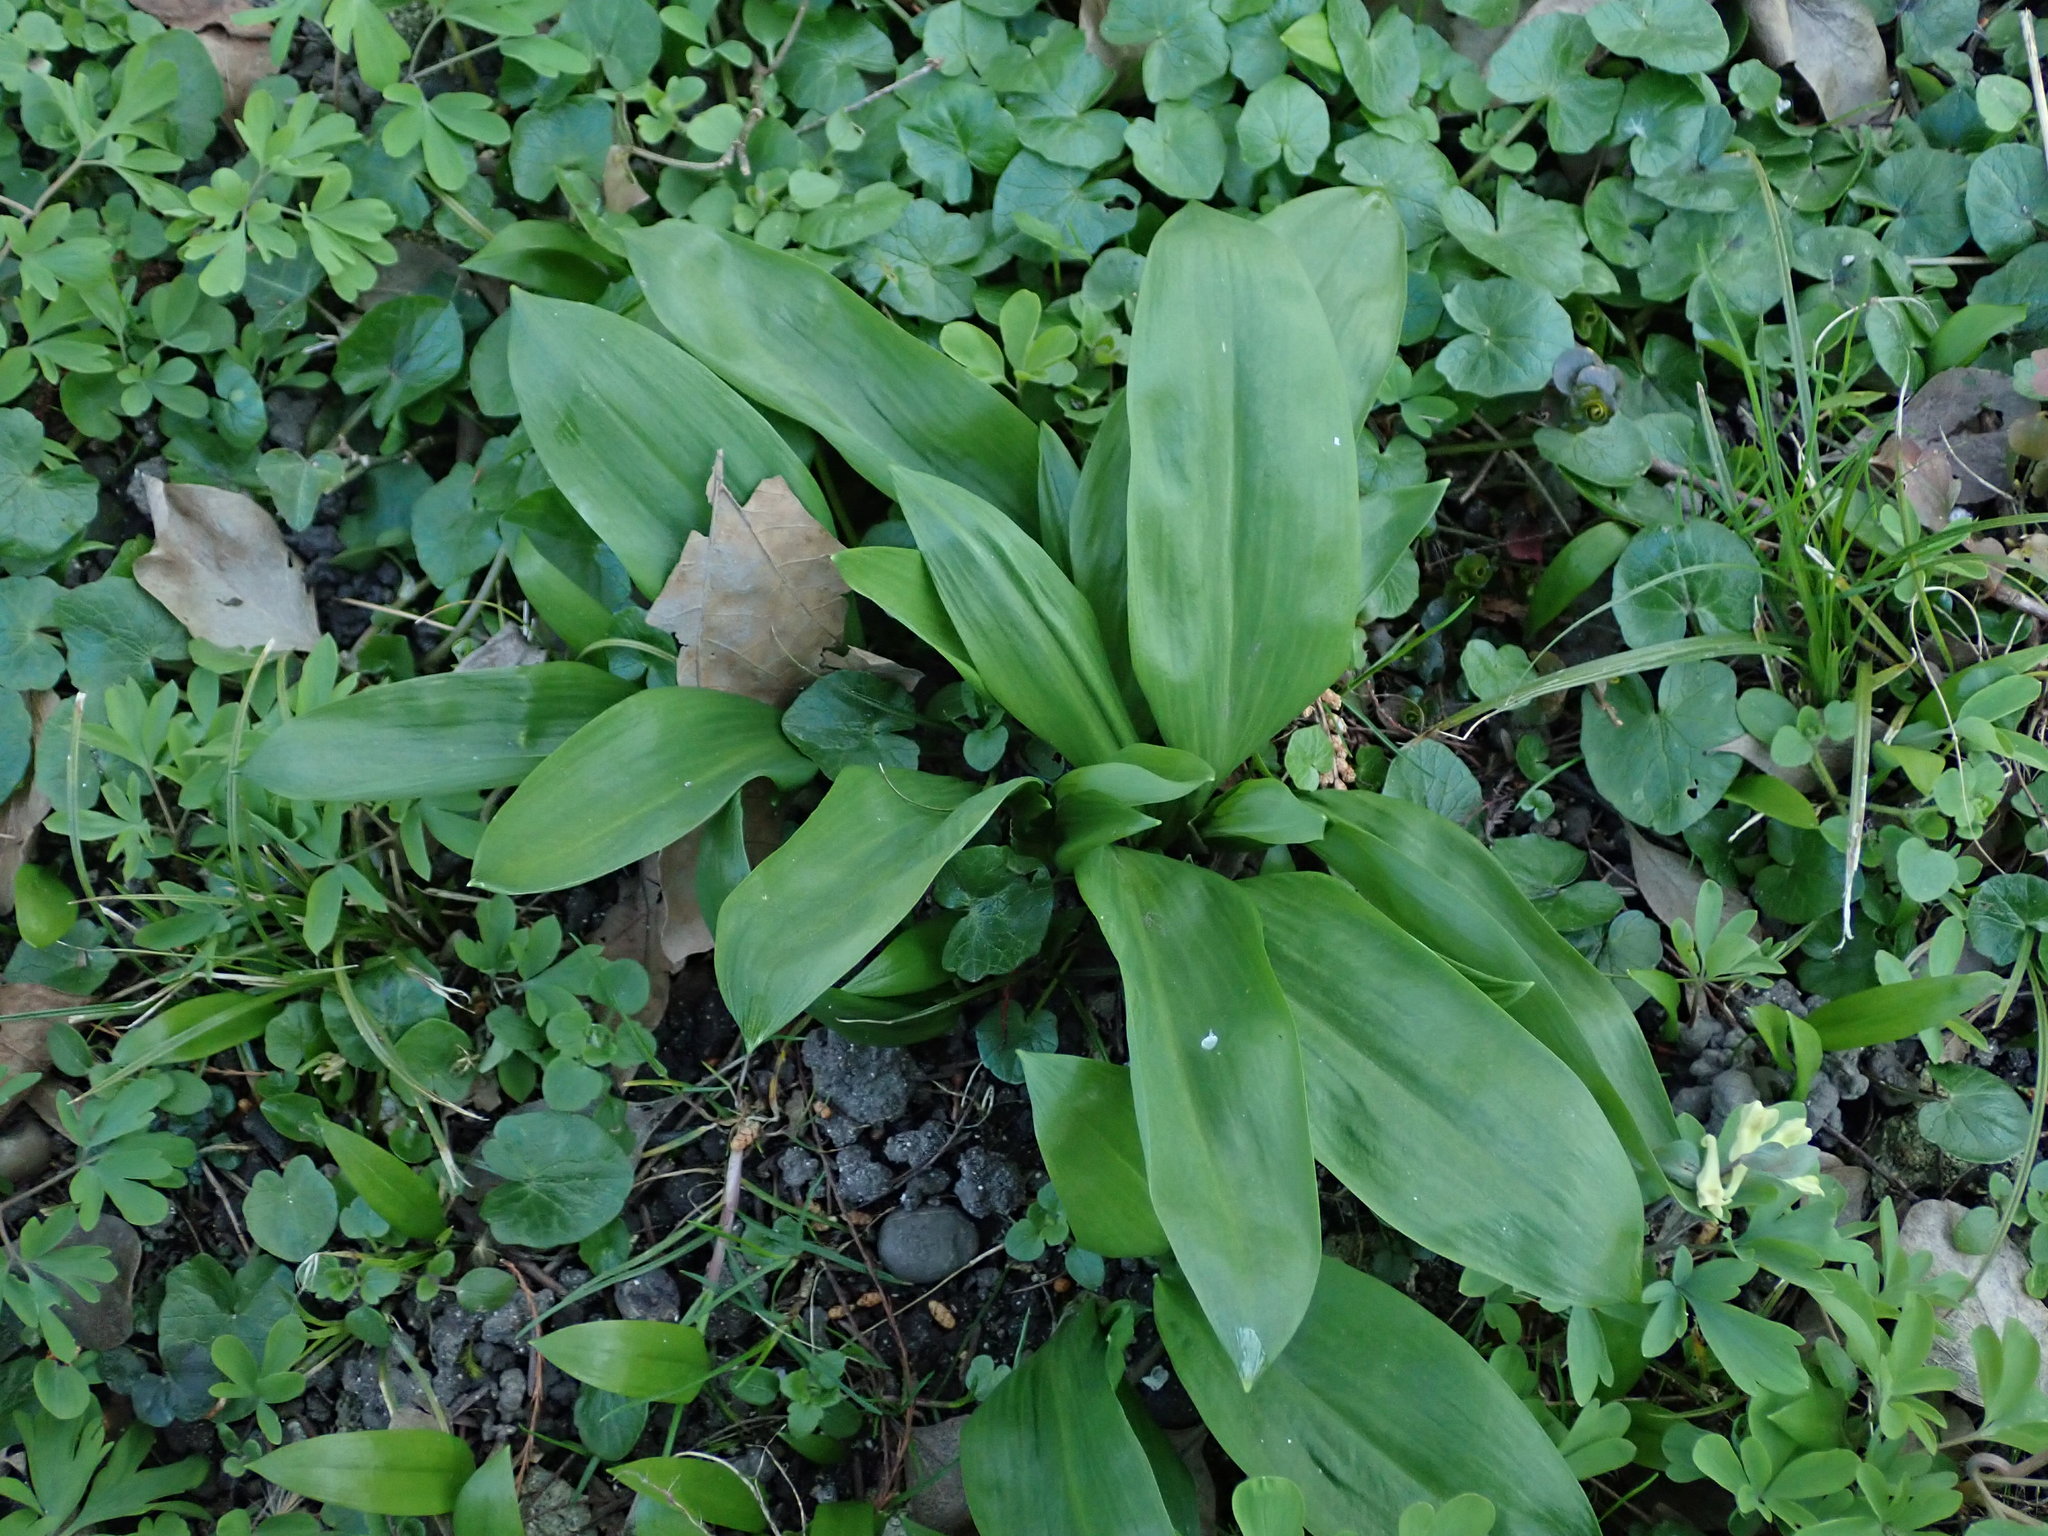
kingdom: Plantae
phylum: Tracheophyta
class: Liliopsida
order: Asparagales
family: Amaryllidaceae
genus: Allium
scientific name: Allium ursinum
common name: Ramsons
